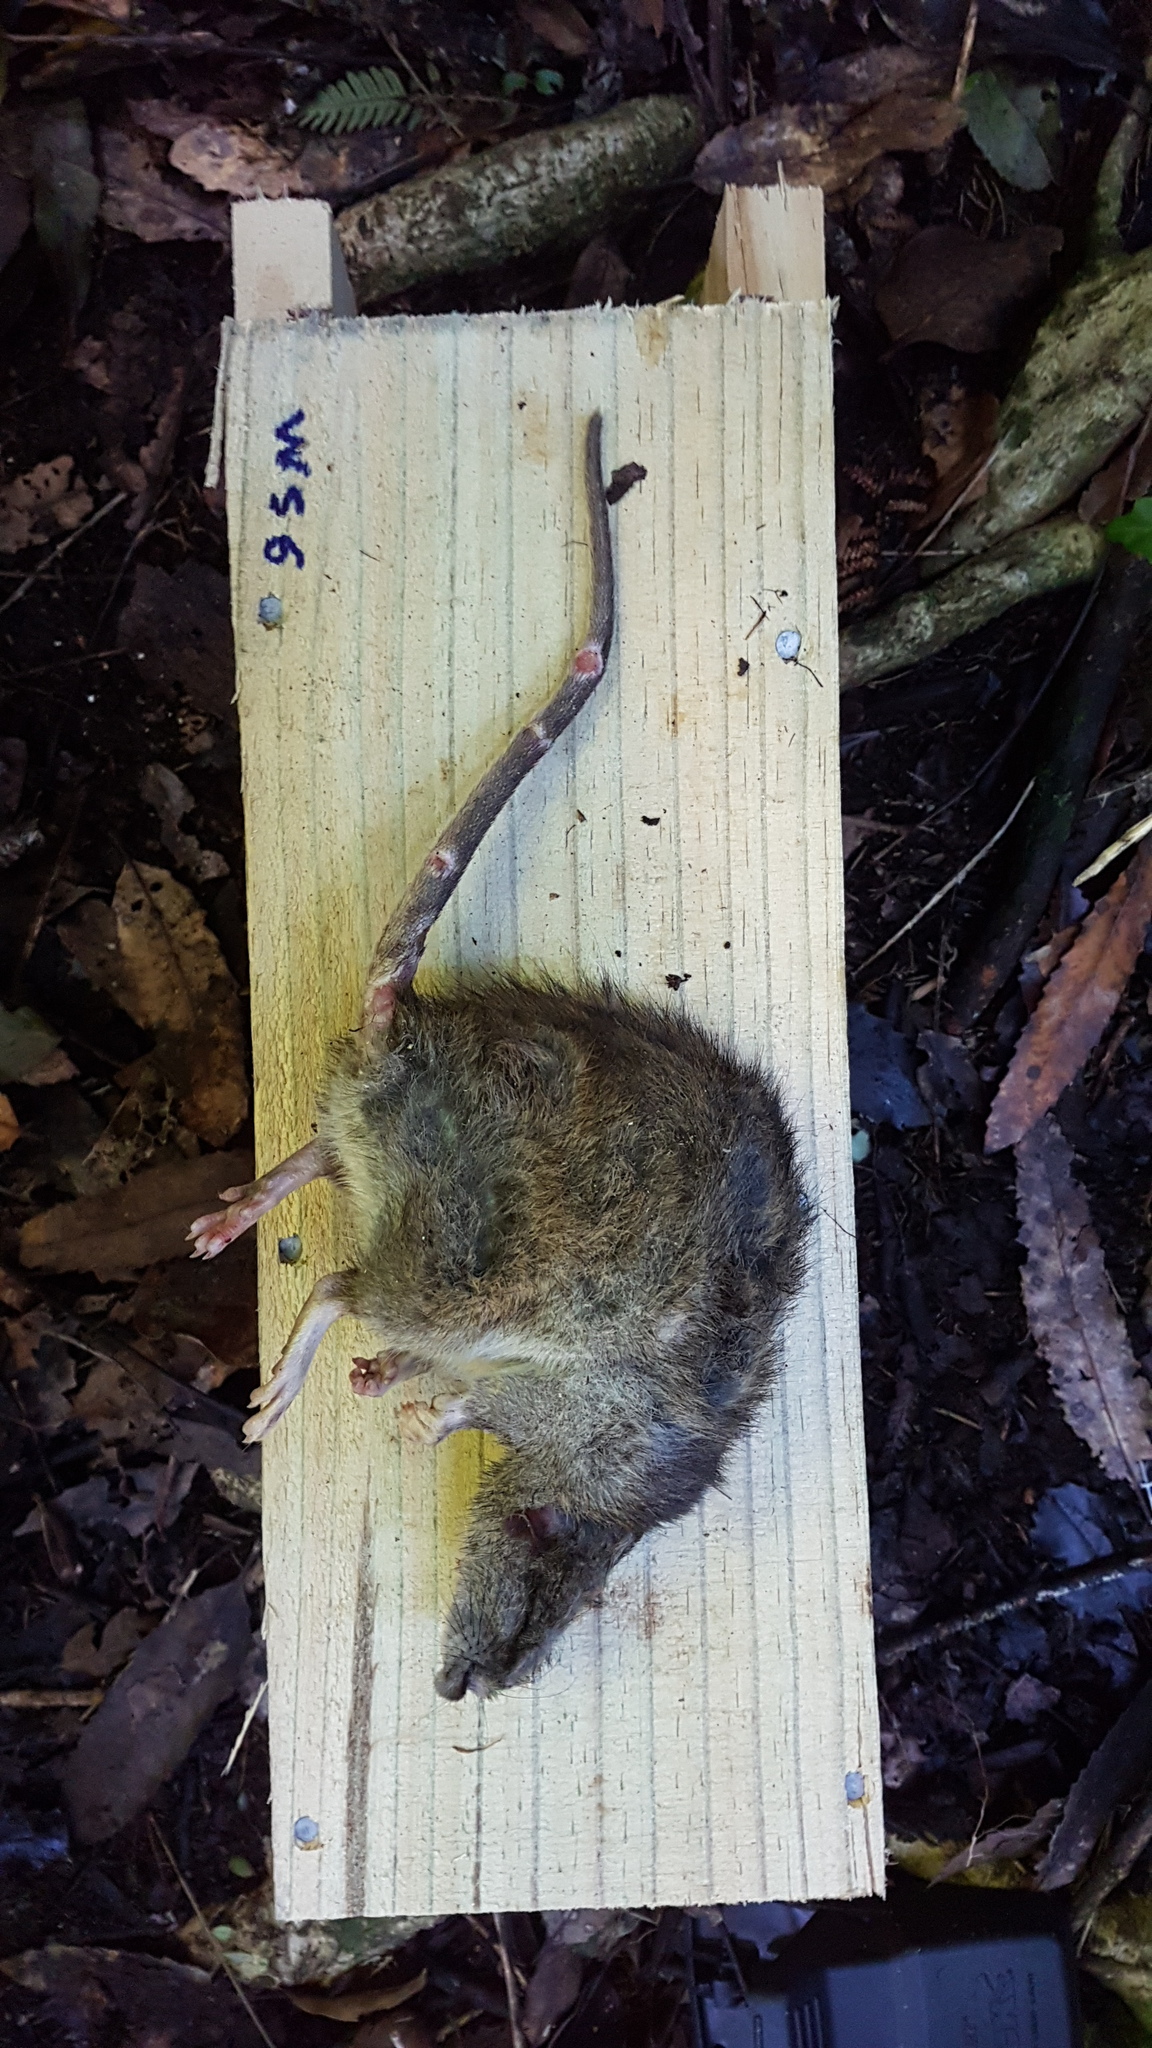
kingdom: Animalia
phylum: Chordata
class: Mammalia
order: Rodentia
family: Muridae
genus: Rattus
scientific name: Rattus norvegicus
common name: Brown rat
